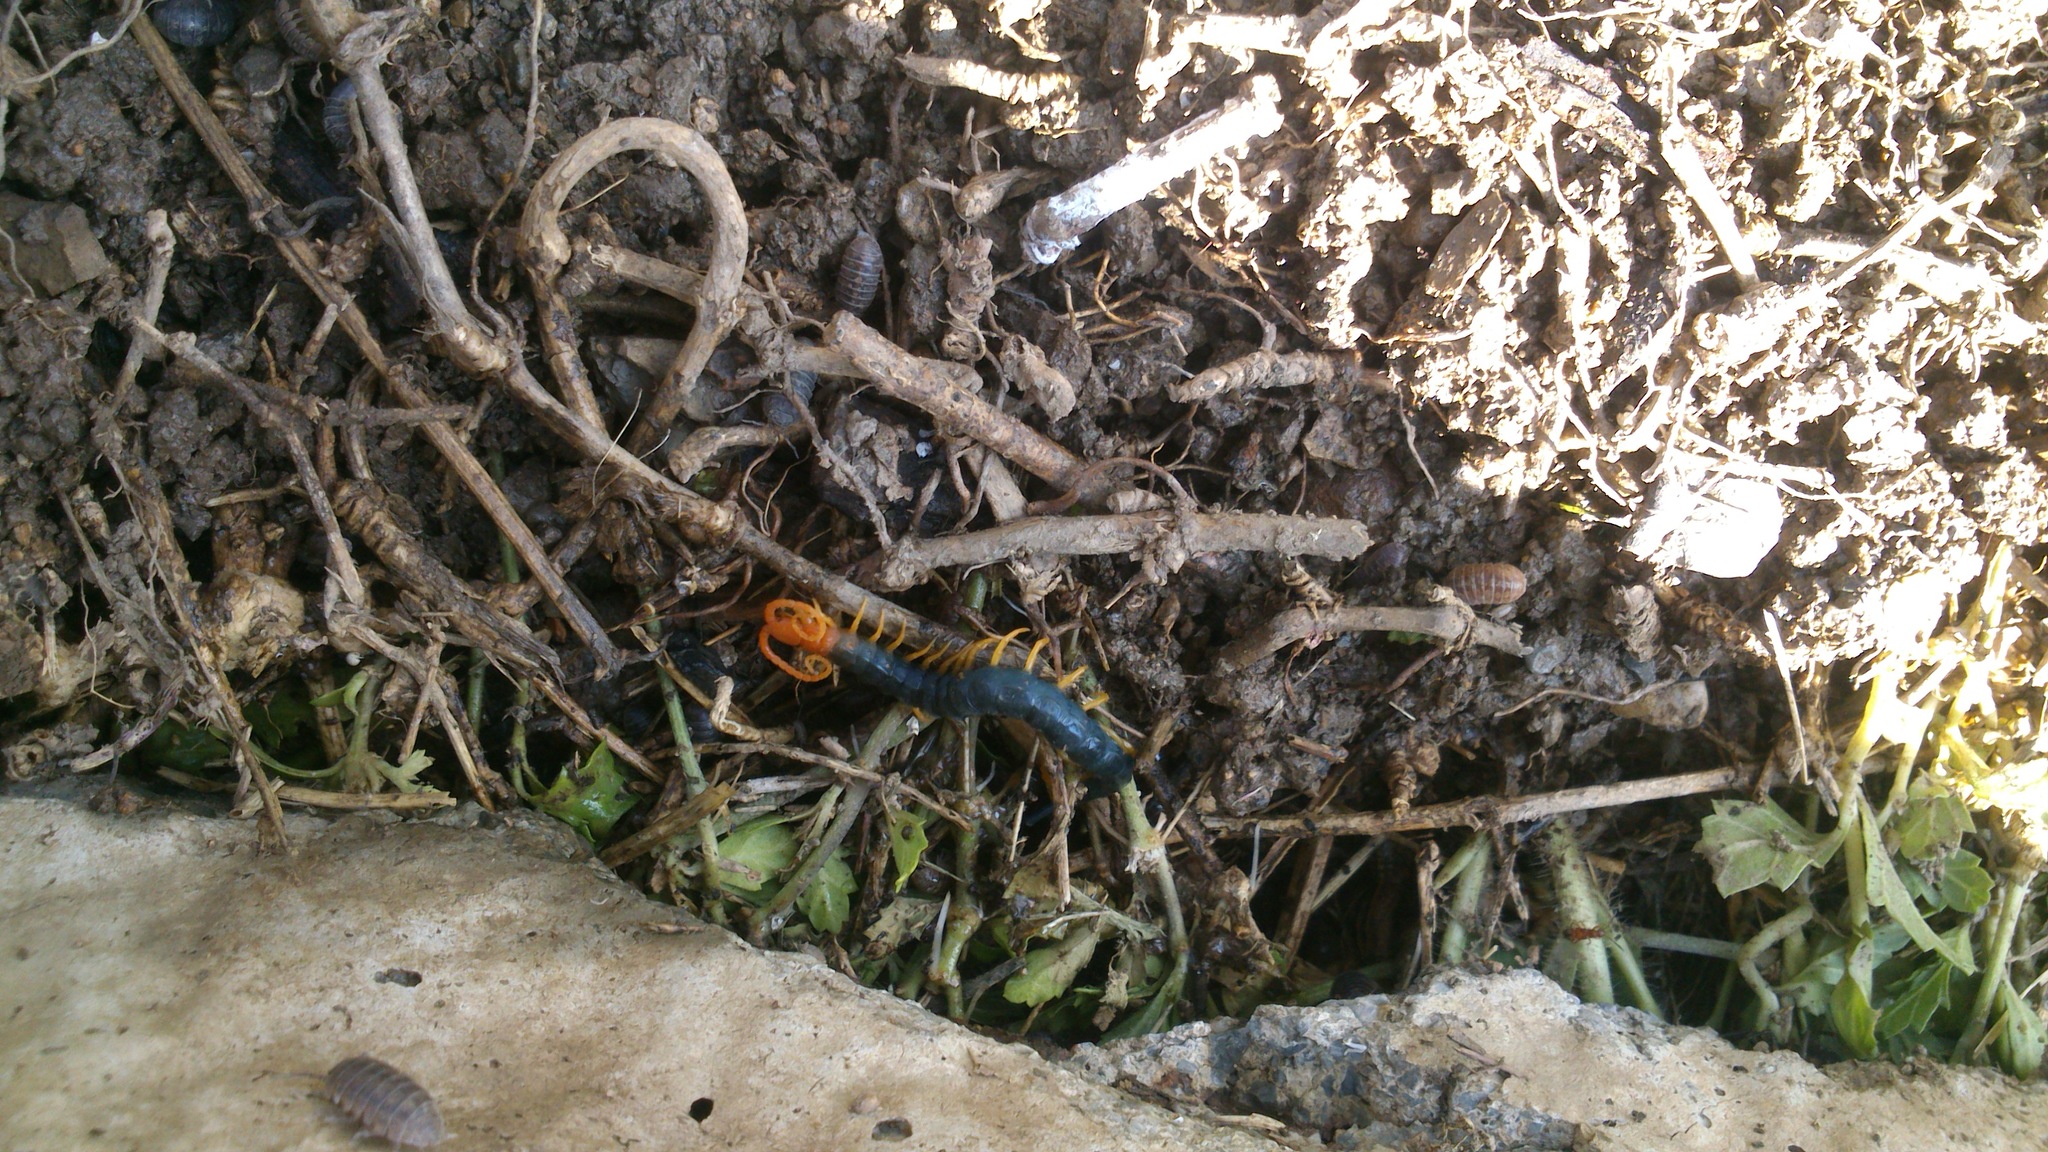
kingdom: Animalia
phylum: Arthropoda
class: Chilopoda
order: Scolopendromorpha
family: Scolopendridae
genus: Scolopendra
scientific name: Scolopendra heros
